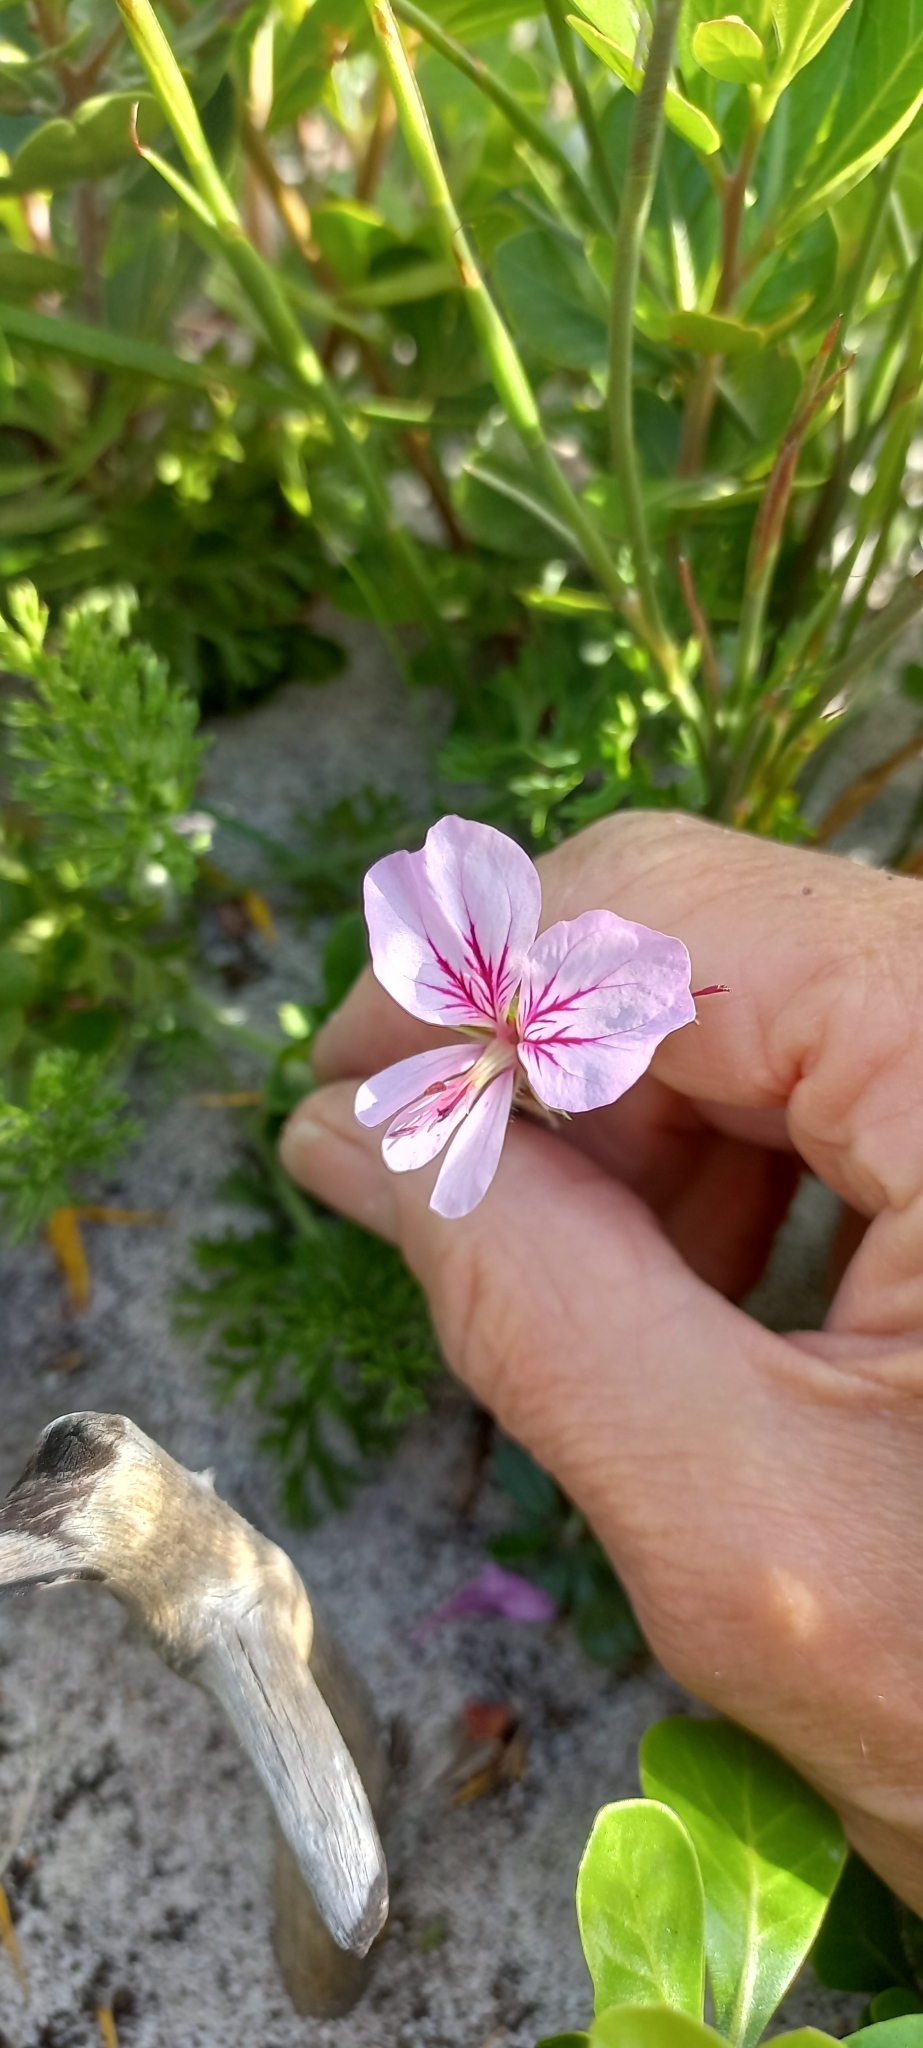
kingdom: Plantae
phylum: Tracheophyta
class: Magnoliopsida
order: Geraniales
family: Geraniaceae
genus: Pelargonium
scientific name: Pelargonium myrrhifolium
